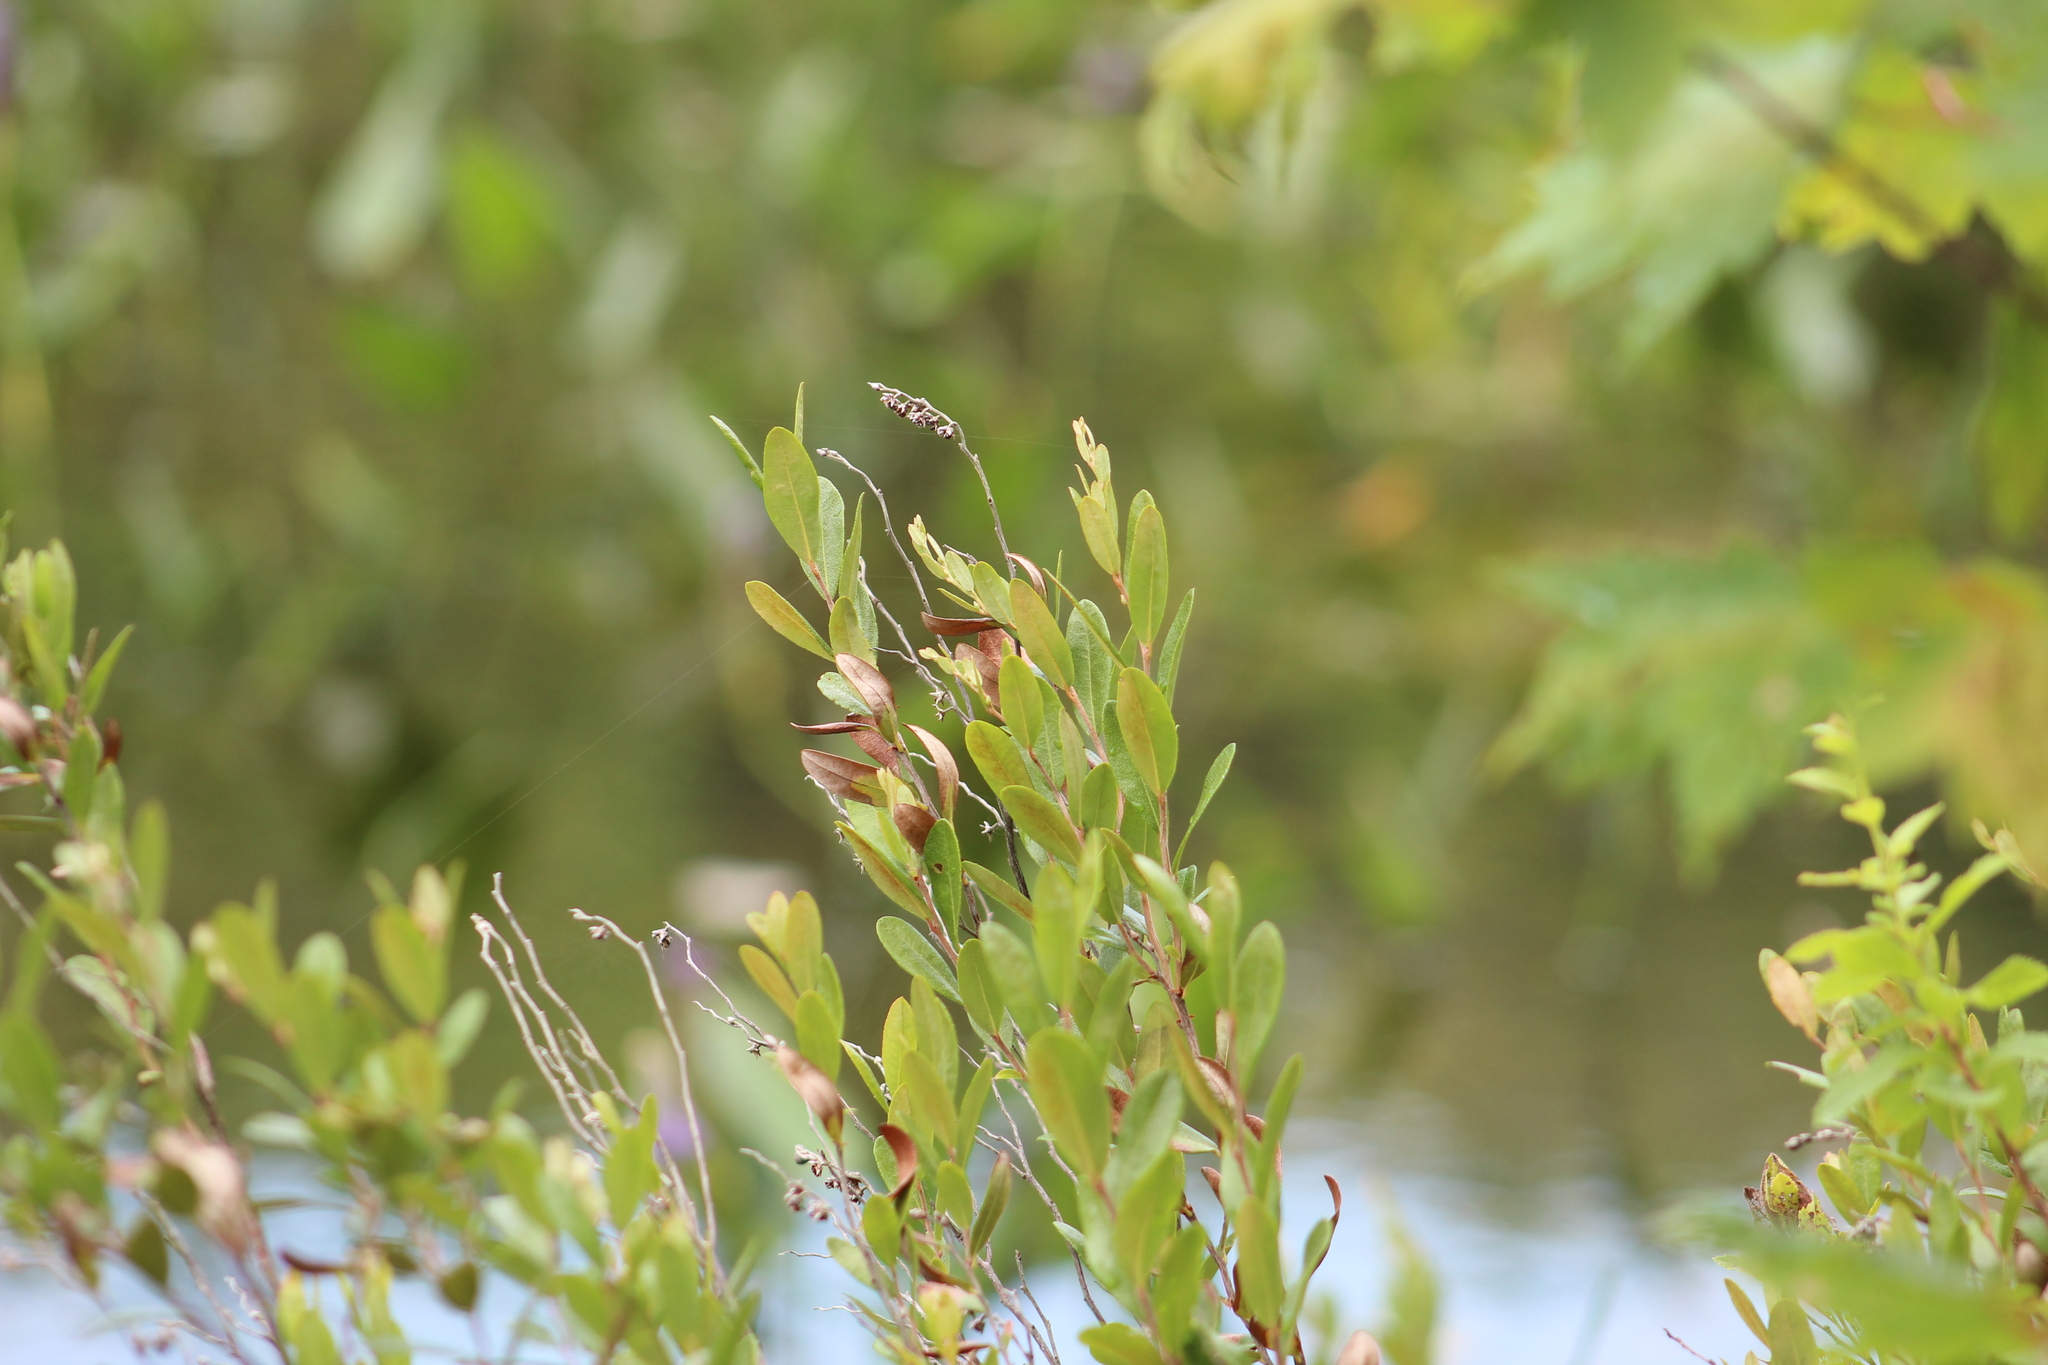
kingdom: Plantae
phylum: Tracheophyta
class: Magnoliopsida
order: Ericales
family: Ericaceae
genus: Chamaedaphne
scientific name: Chamaedaphne calyculata
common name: Leatherleaf
